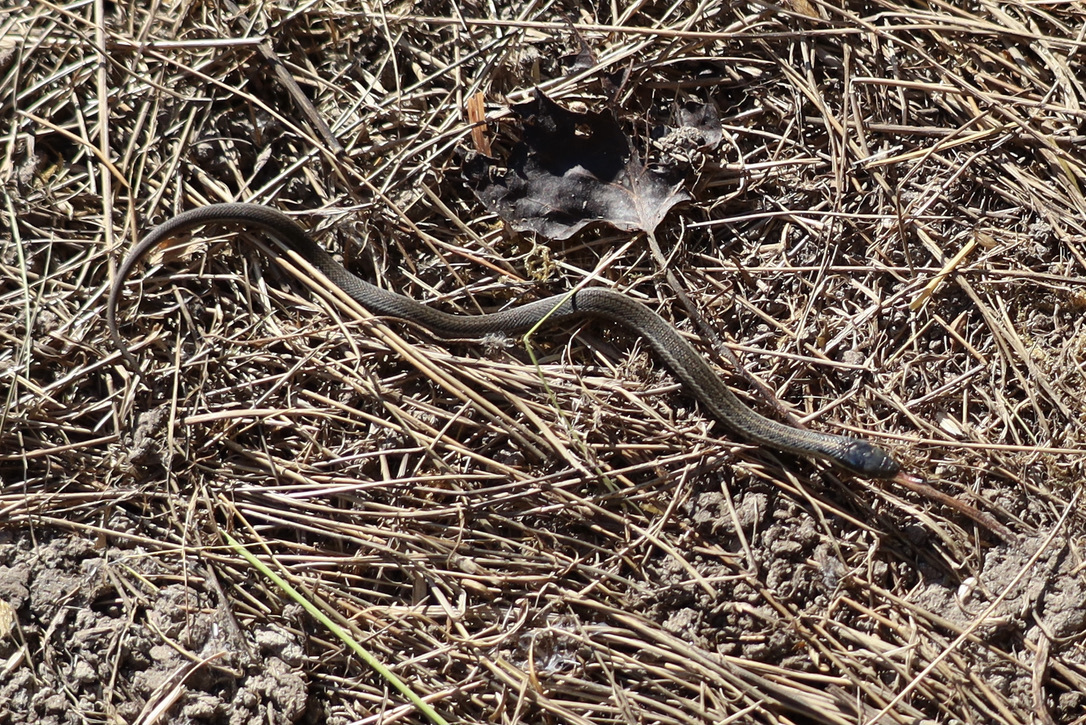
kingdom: Animalia
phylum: Chordata
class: Squamata
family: Colubridae
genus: Thamnophis
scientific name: Thamnophis ordinoides
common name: Northwestern garter snake
